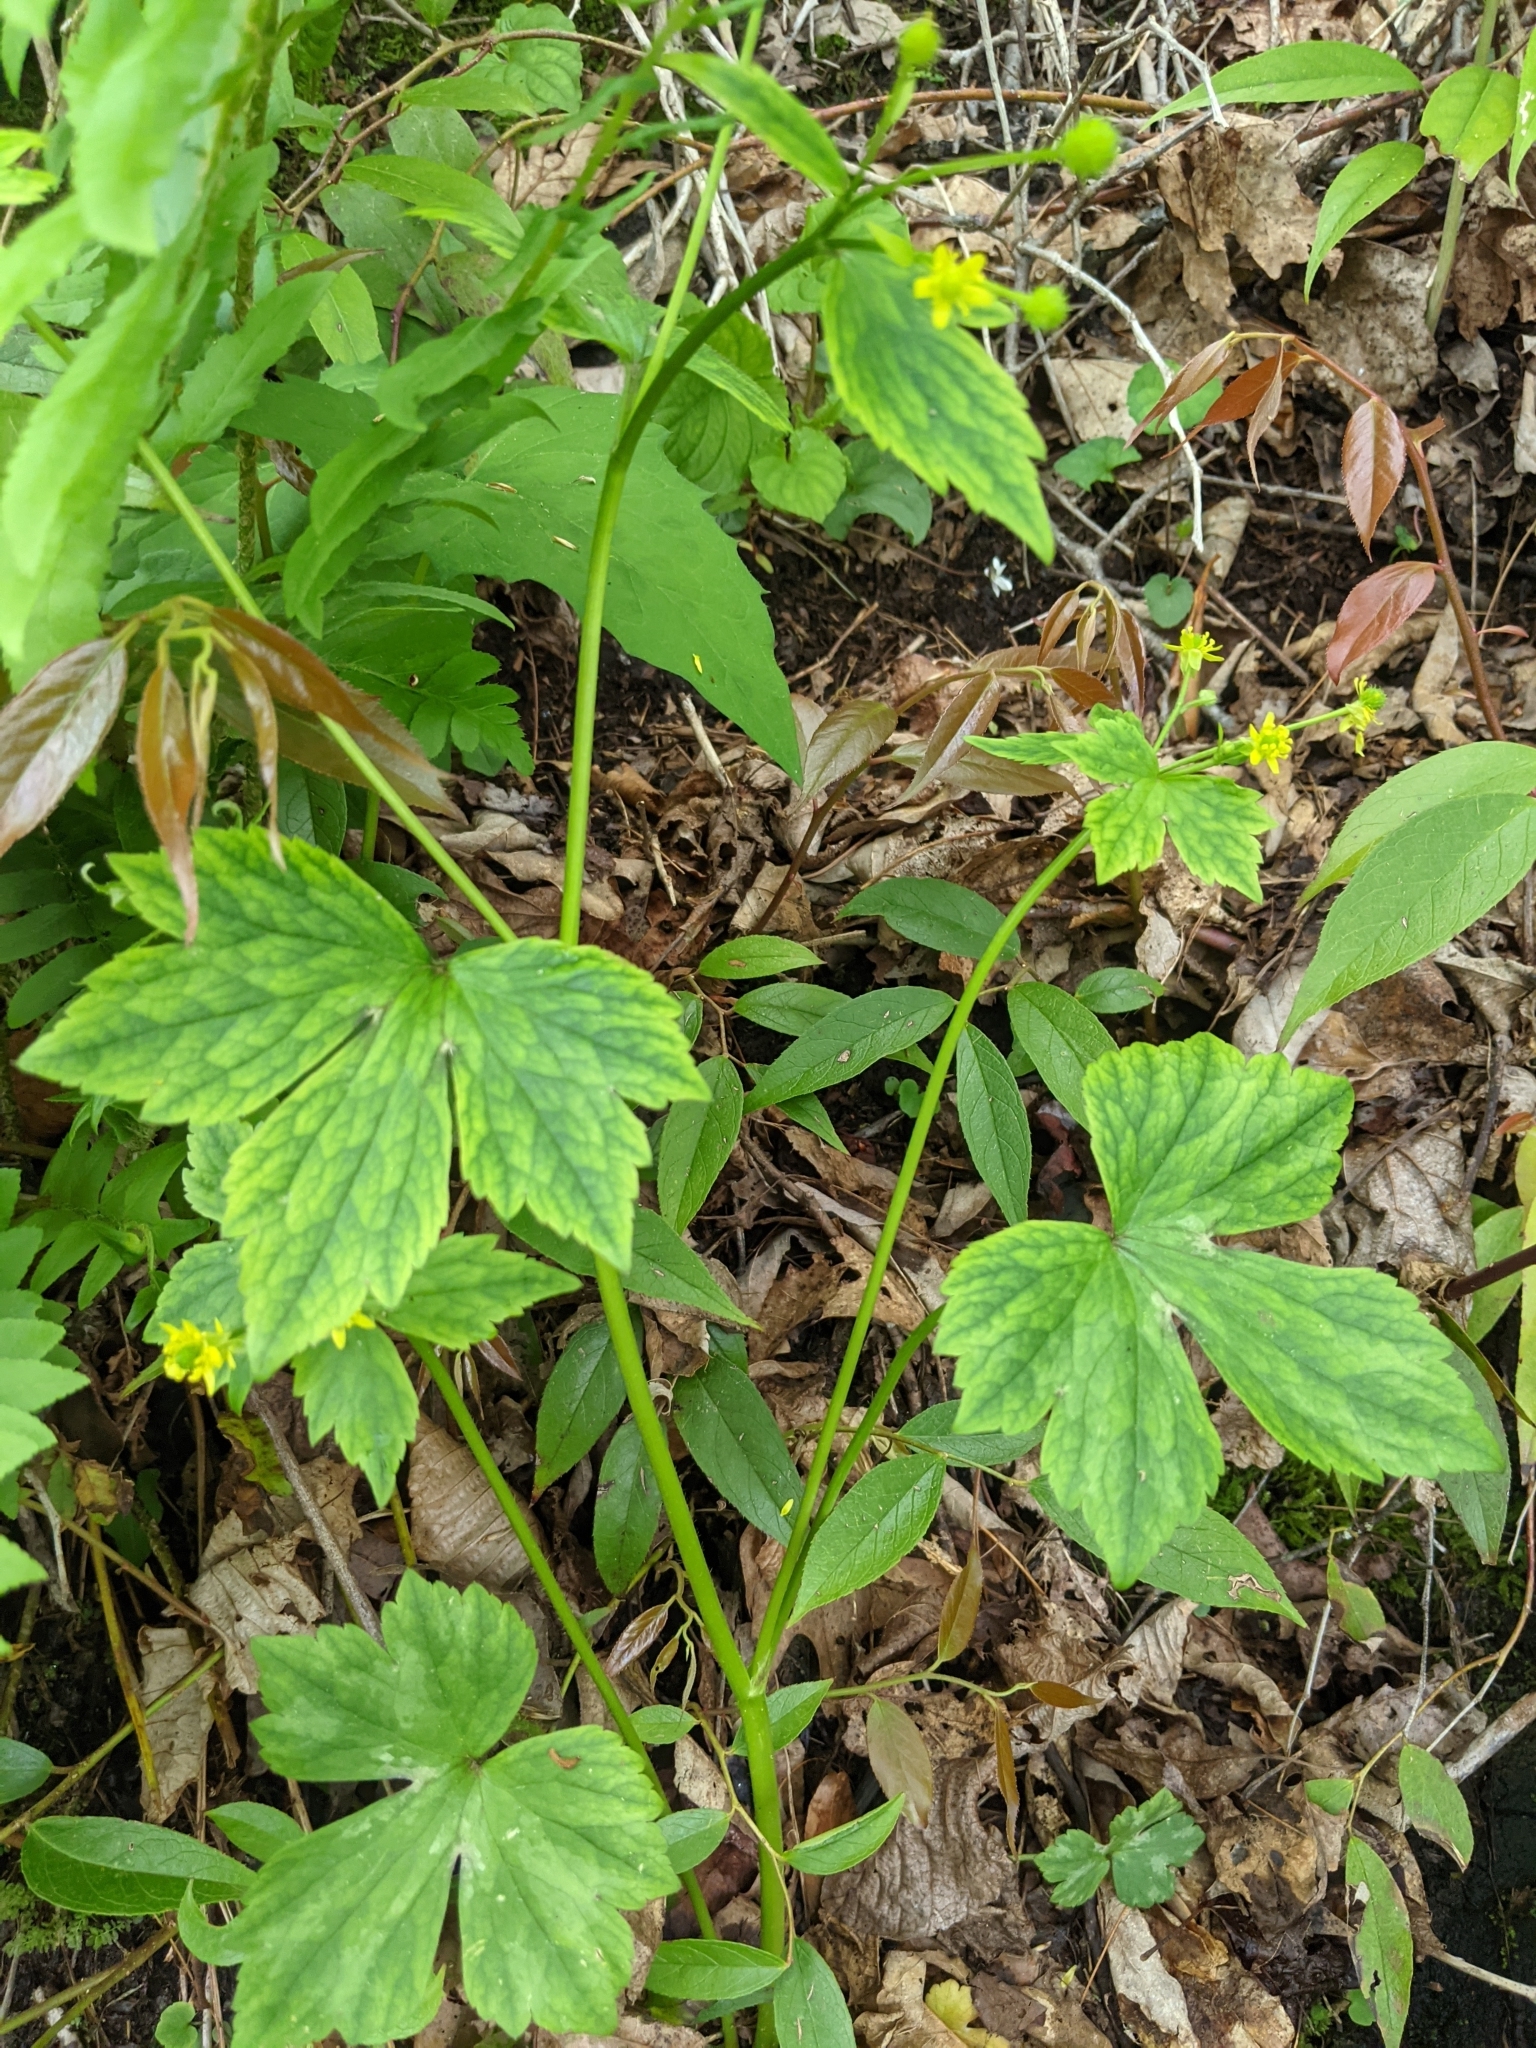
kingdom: Plantae
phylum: Tracheophyta
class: Magnoliopsida
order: Ranunculales
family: Ranunculaceae
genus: Ranunculus
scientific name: Ranunculus recurvatus
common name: Blisterwort
